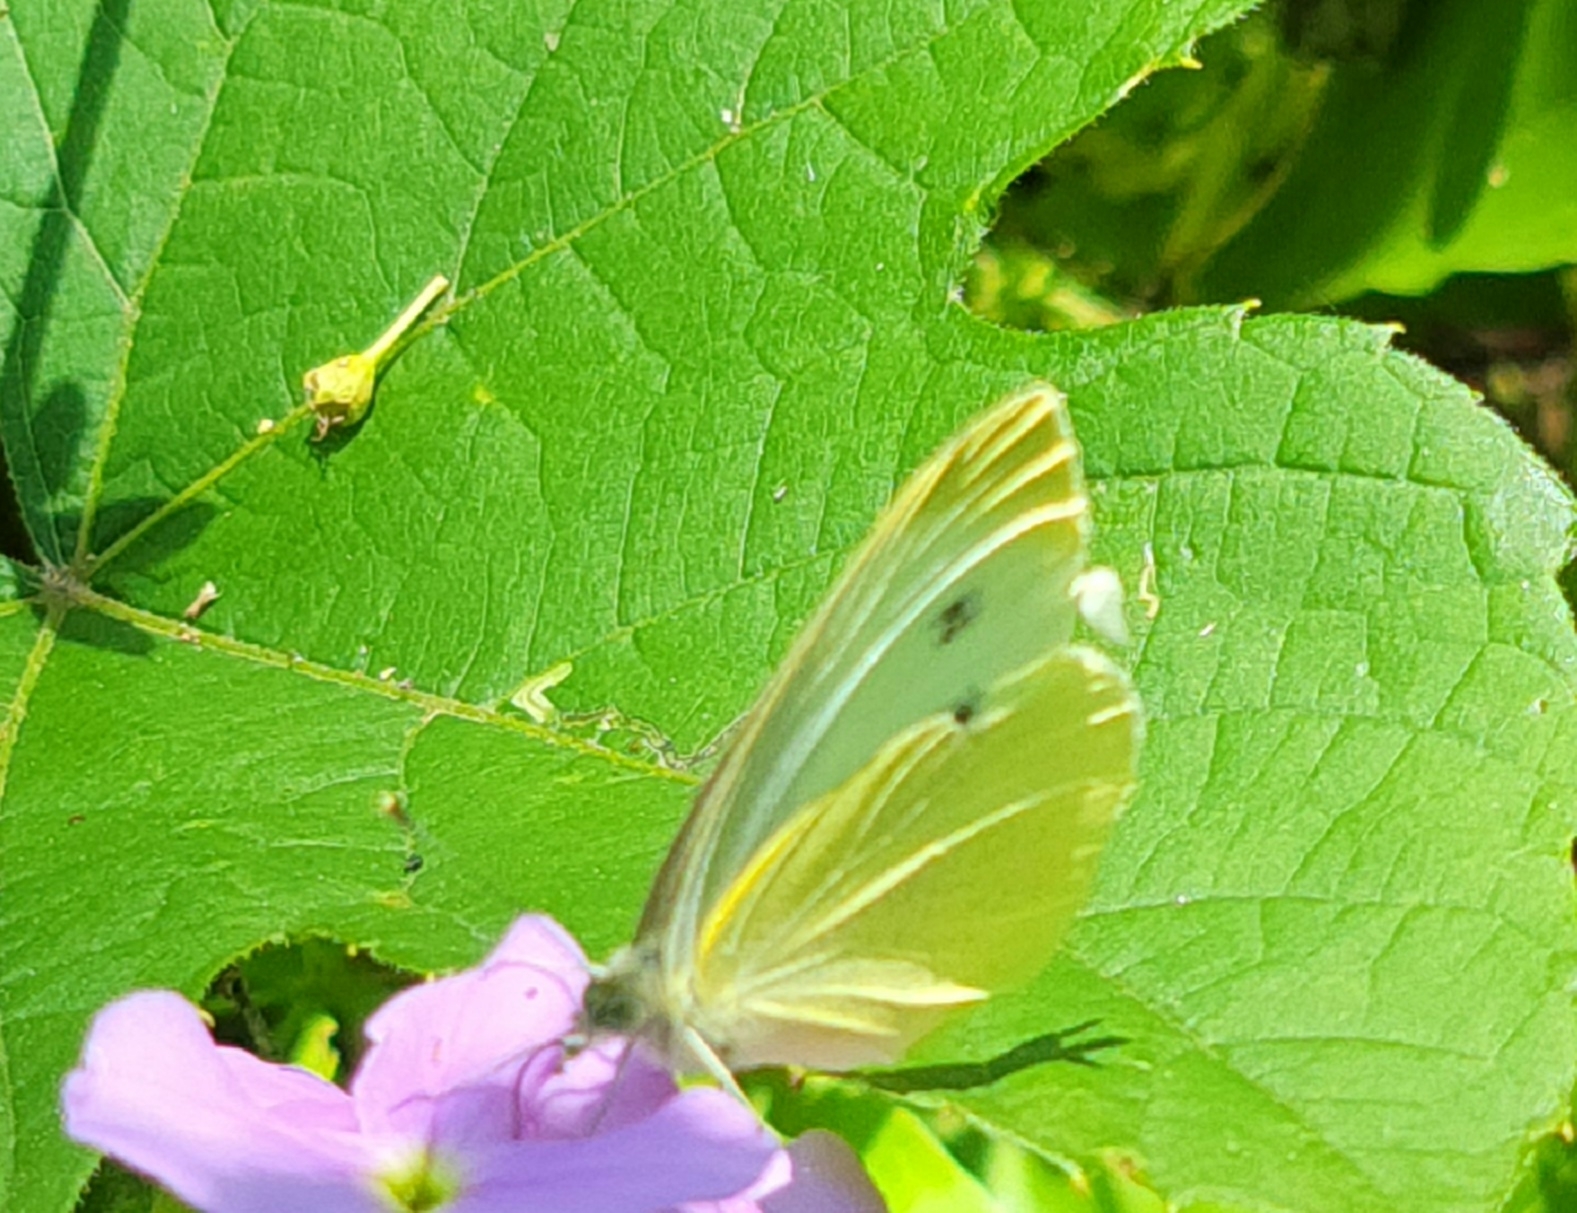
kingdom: Animalia
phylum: Arthropoda
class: Insecta
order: Lepidoptera
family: Pieridae
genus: Pieris
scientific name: Pieris rapae
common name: Small white
